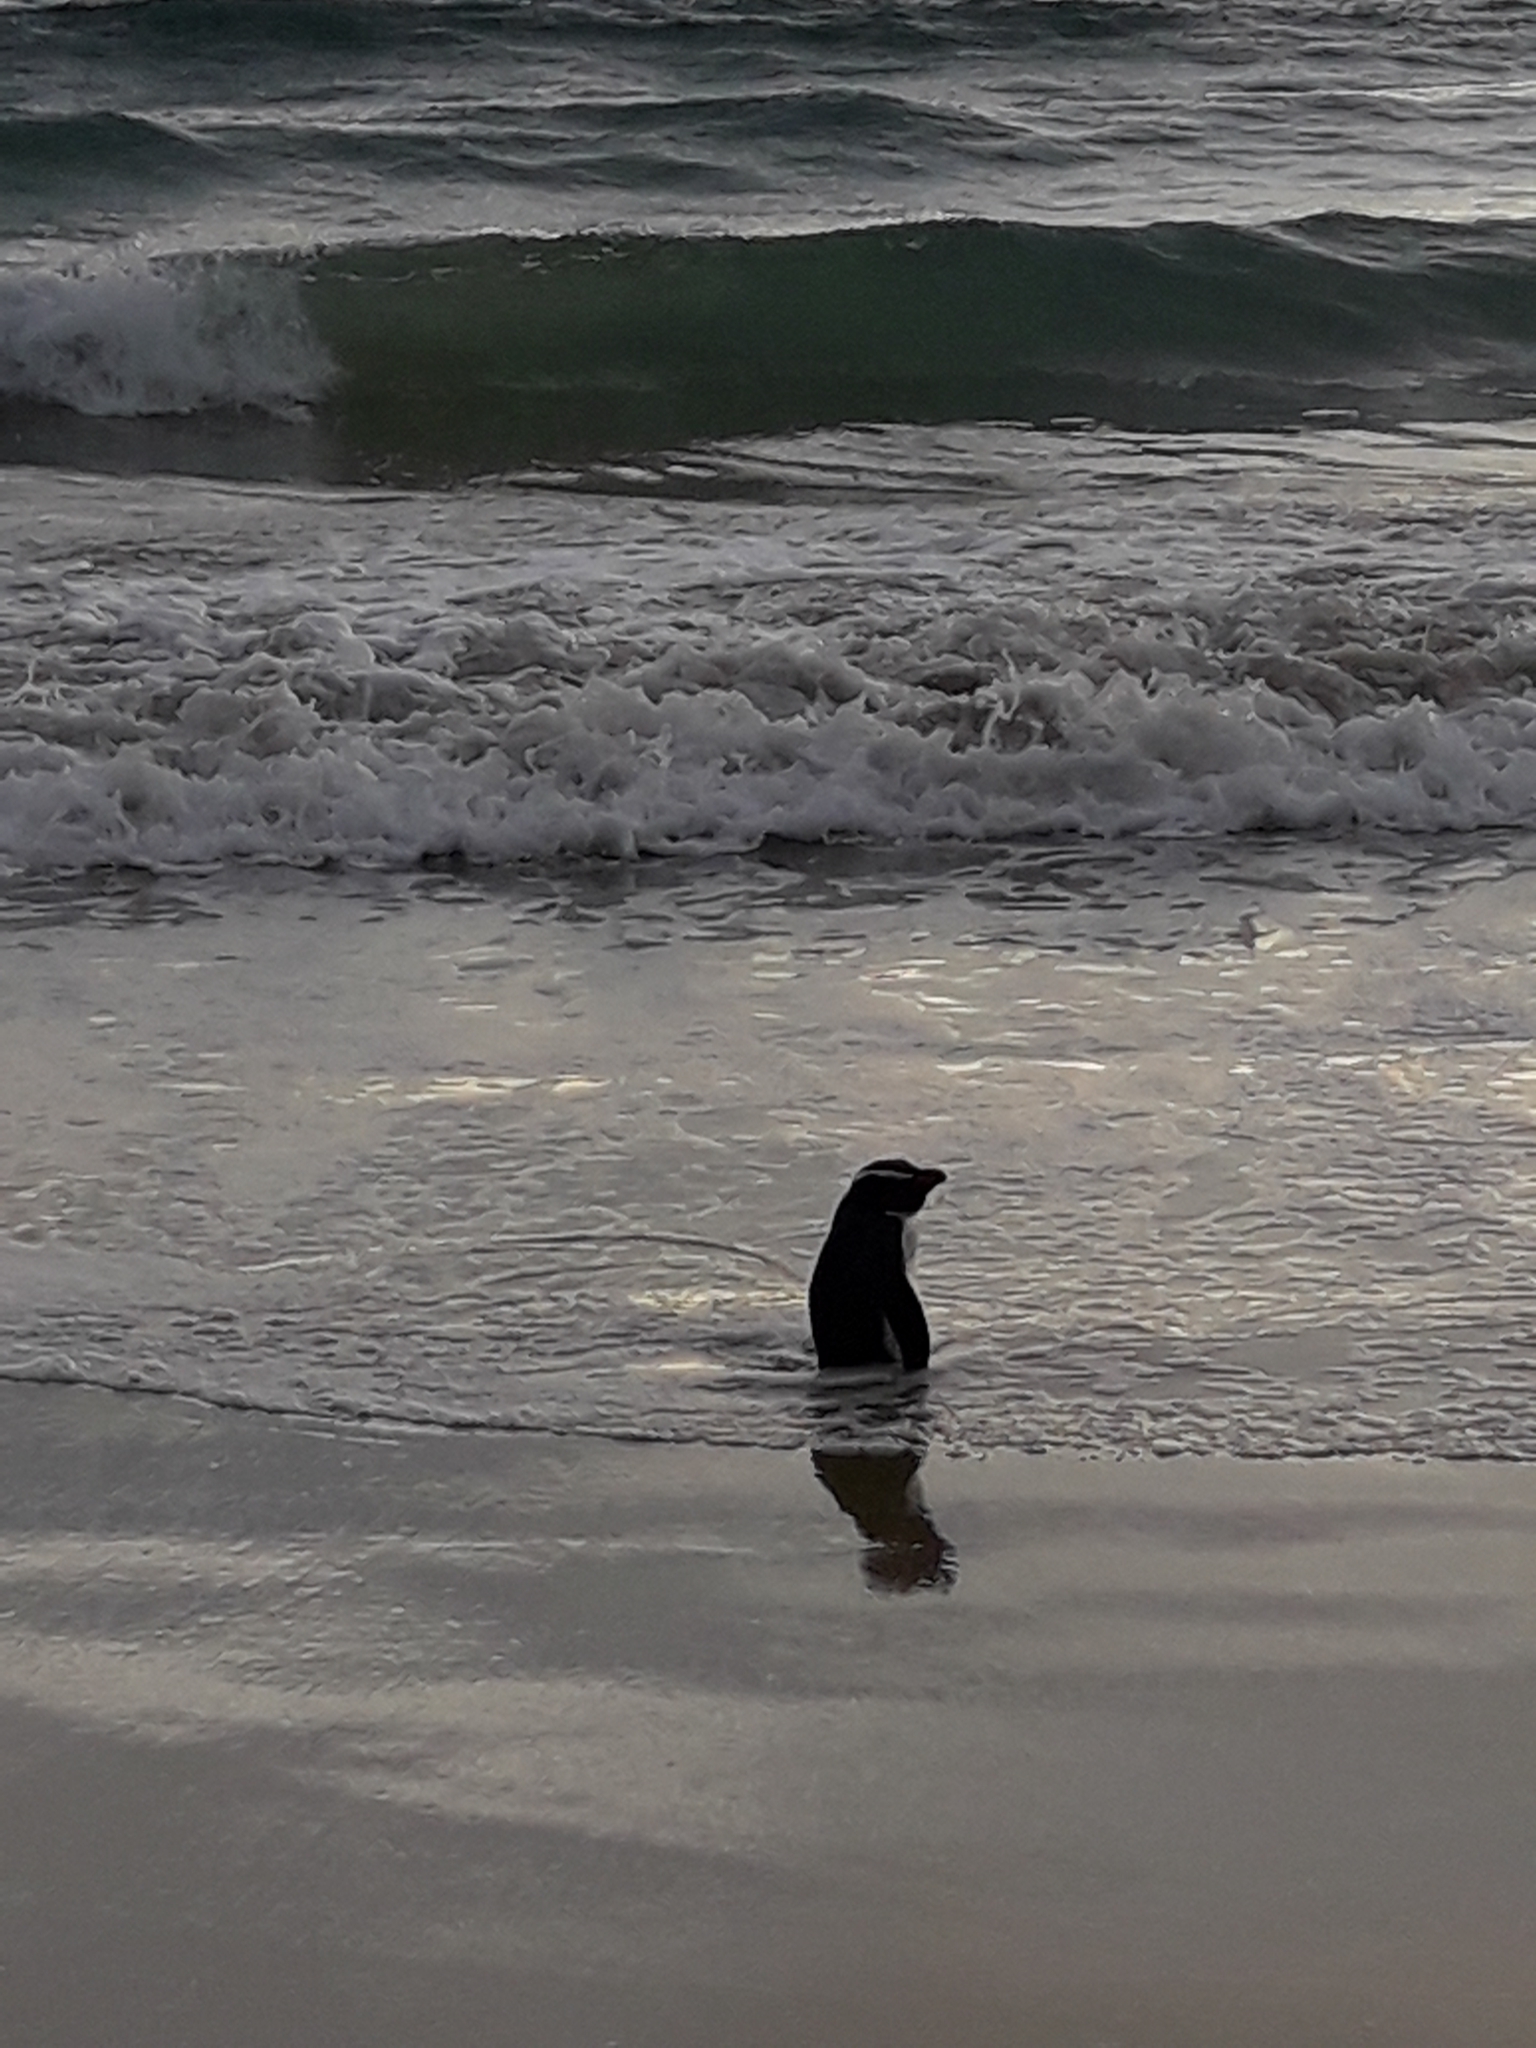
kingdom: Animalia
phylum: Chordata
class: Aves
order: Sphenisciformes
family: Spheniscidae
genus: Eudyptes
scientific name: Eudyptes pachyrhynchus
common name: Fiordland penguin
